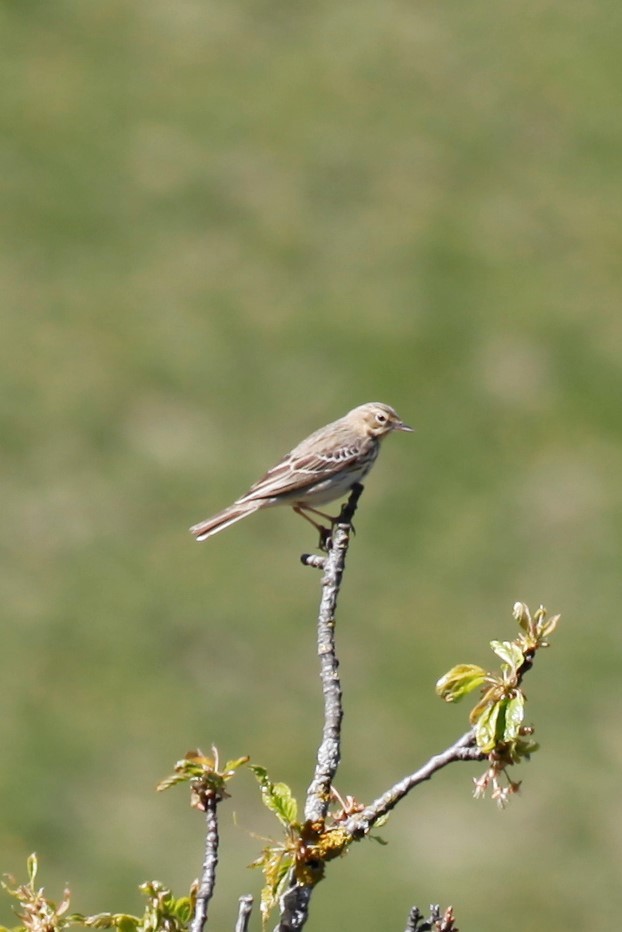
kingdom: Animalia
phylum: Chordata
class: Aves
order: Passeriformes
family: Motacillidae
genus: Anthus
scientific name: Anthus pratensis
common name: Meadow pipit
